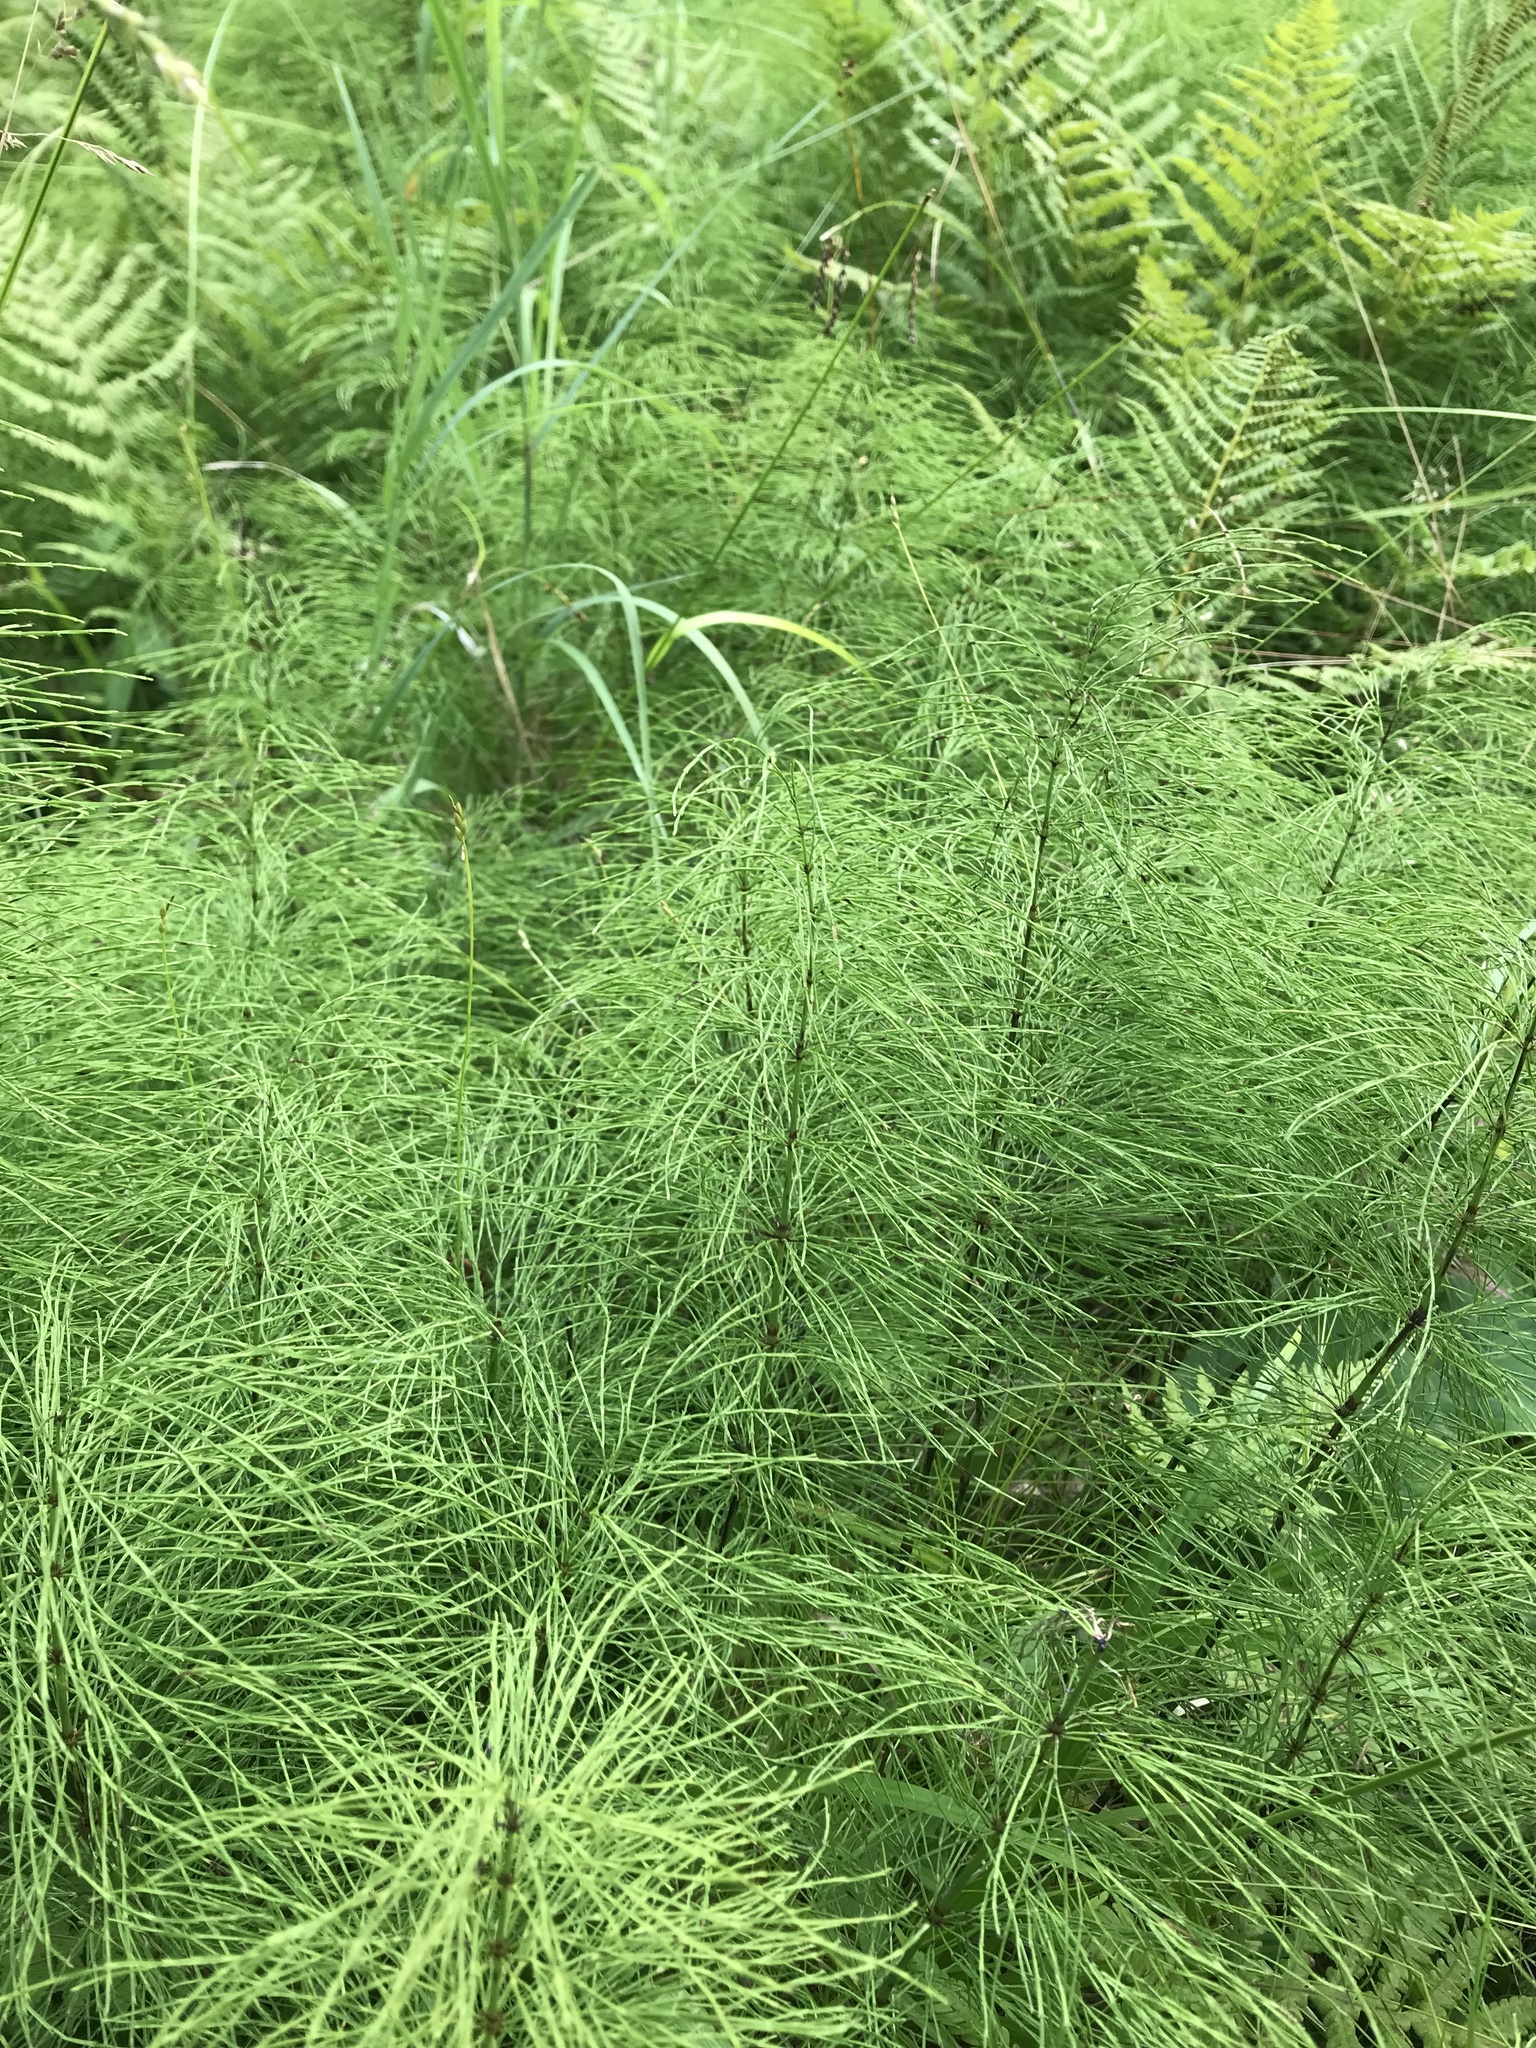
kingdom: Plantae
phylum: Tracheophyta
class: Polypodiopsida
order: Equisetales
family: Equisetaceae
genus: Equisetum
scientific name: Equisetum sylvaticum
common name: Wood horsetail
